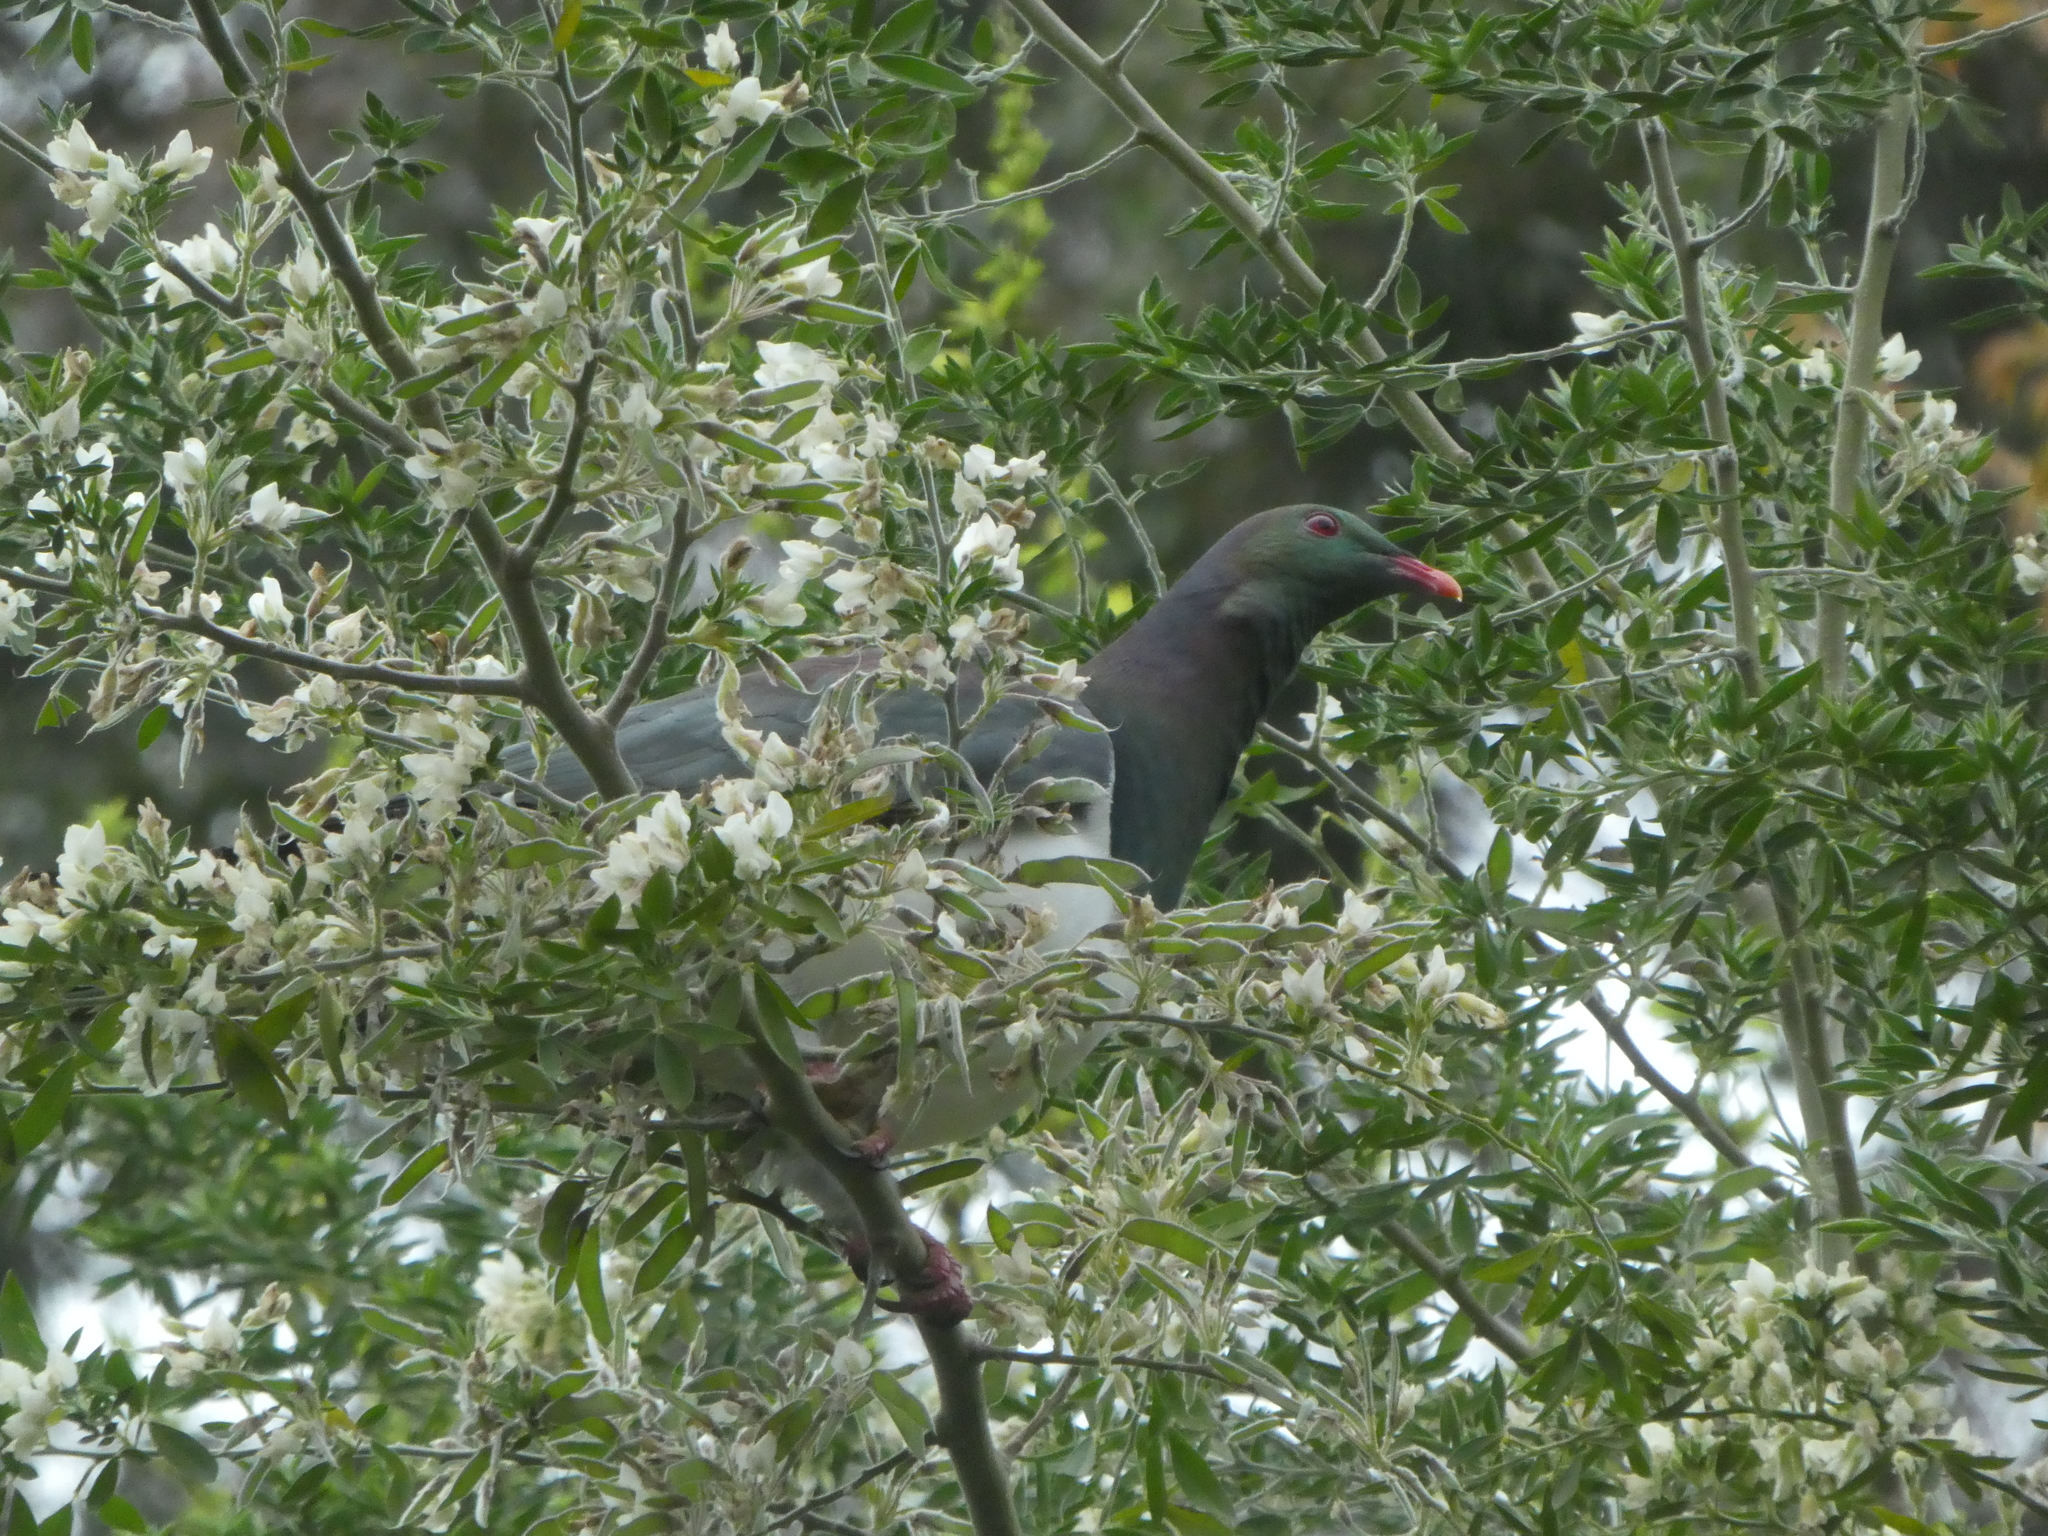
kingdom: Animalia
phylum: Chordata
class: Aves
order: Columbiformes
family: Columbidae
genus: Hemiphaga
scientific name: Hemiphaga novaeseelandiae
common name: New zealand pigeon
